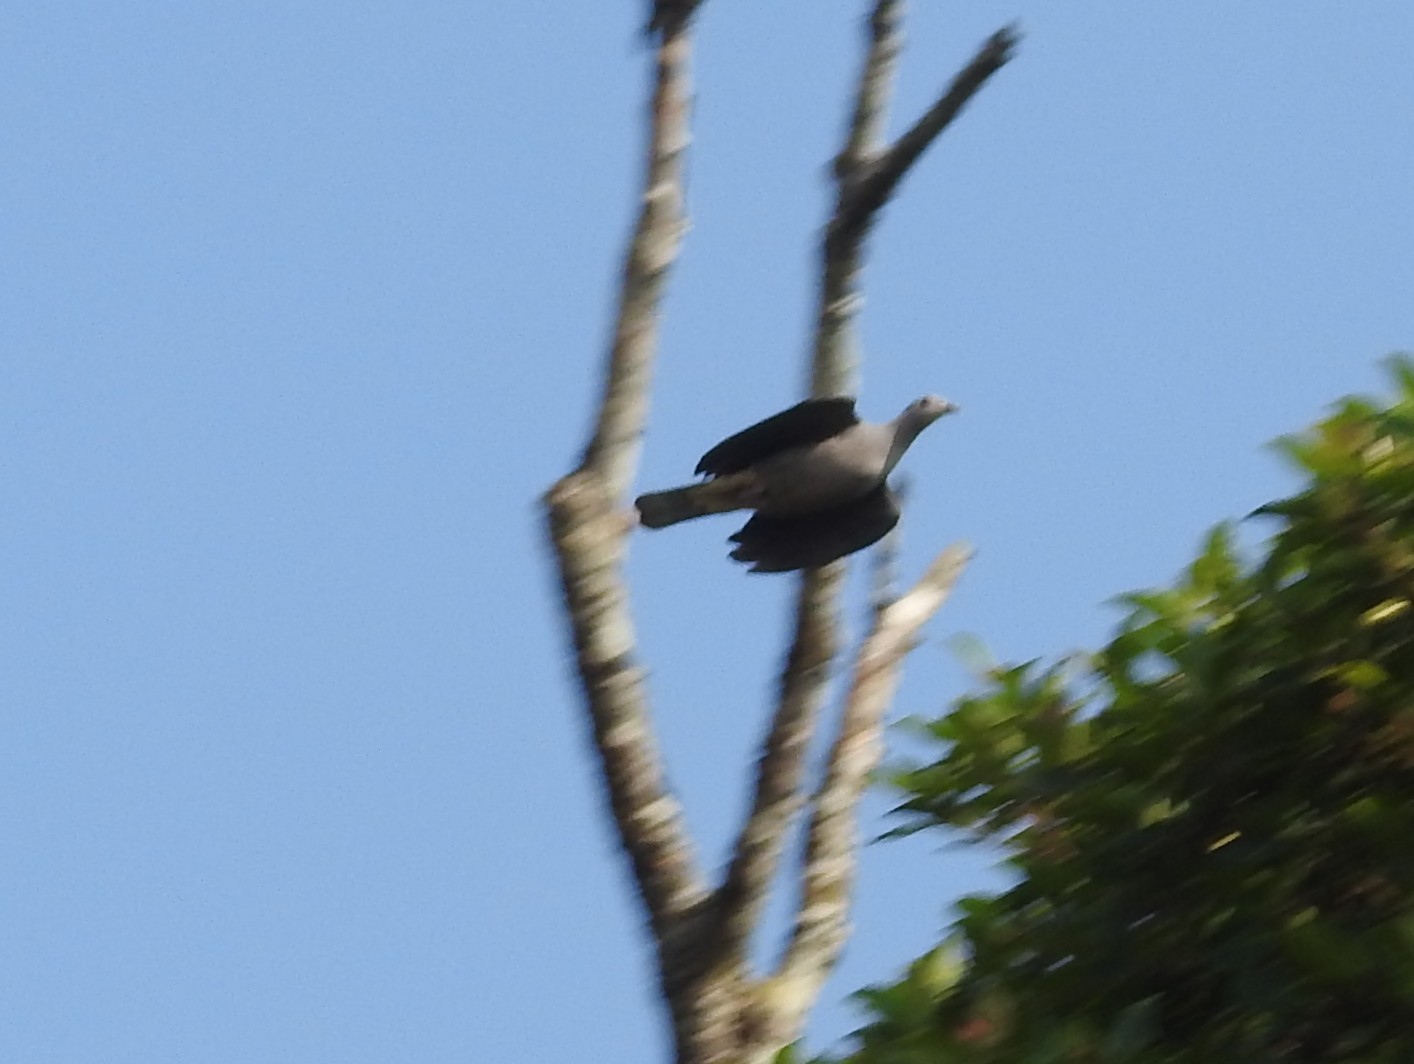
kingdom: Animalia
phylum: Chordata
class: Aves
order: Columbiformes
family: Columbidae
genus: Ducula
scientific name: Ducula badia
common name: Mountain imperial pigeon
